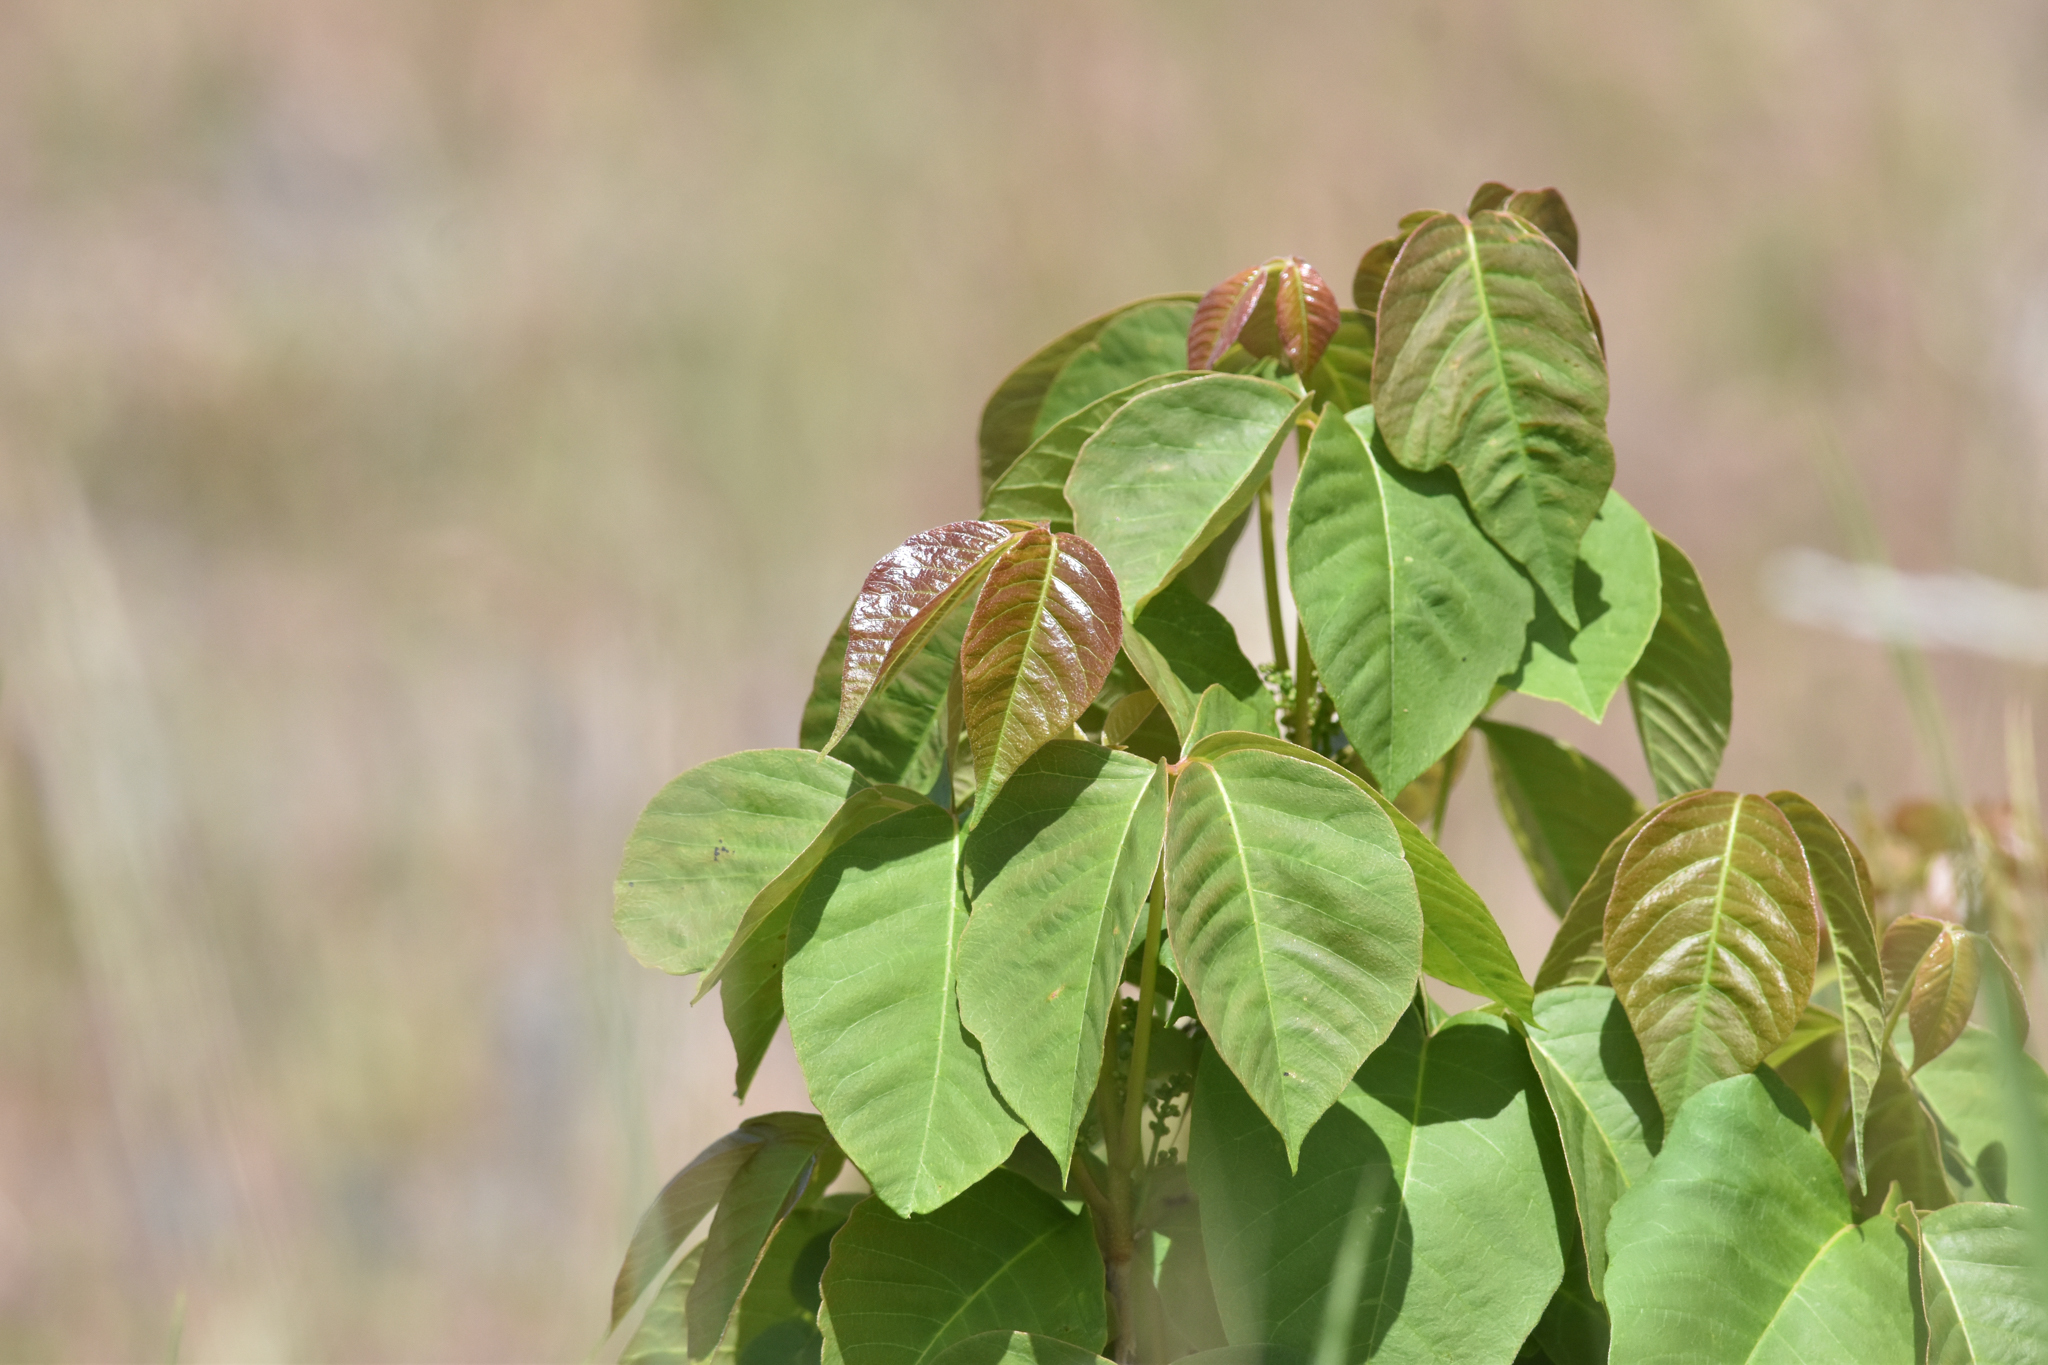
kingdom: Plantae
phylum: Tracheophyta
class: Magnoliopsida
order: Sapindales
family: Anacardiaceae
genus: Toxicodendron
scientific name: Toxicodendron rydbergii
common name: Rydberg's poison-ivy
